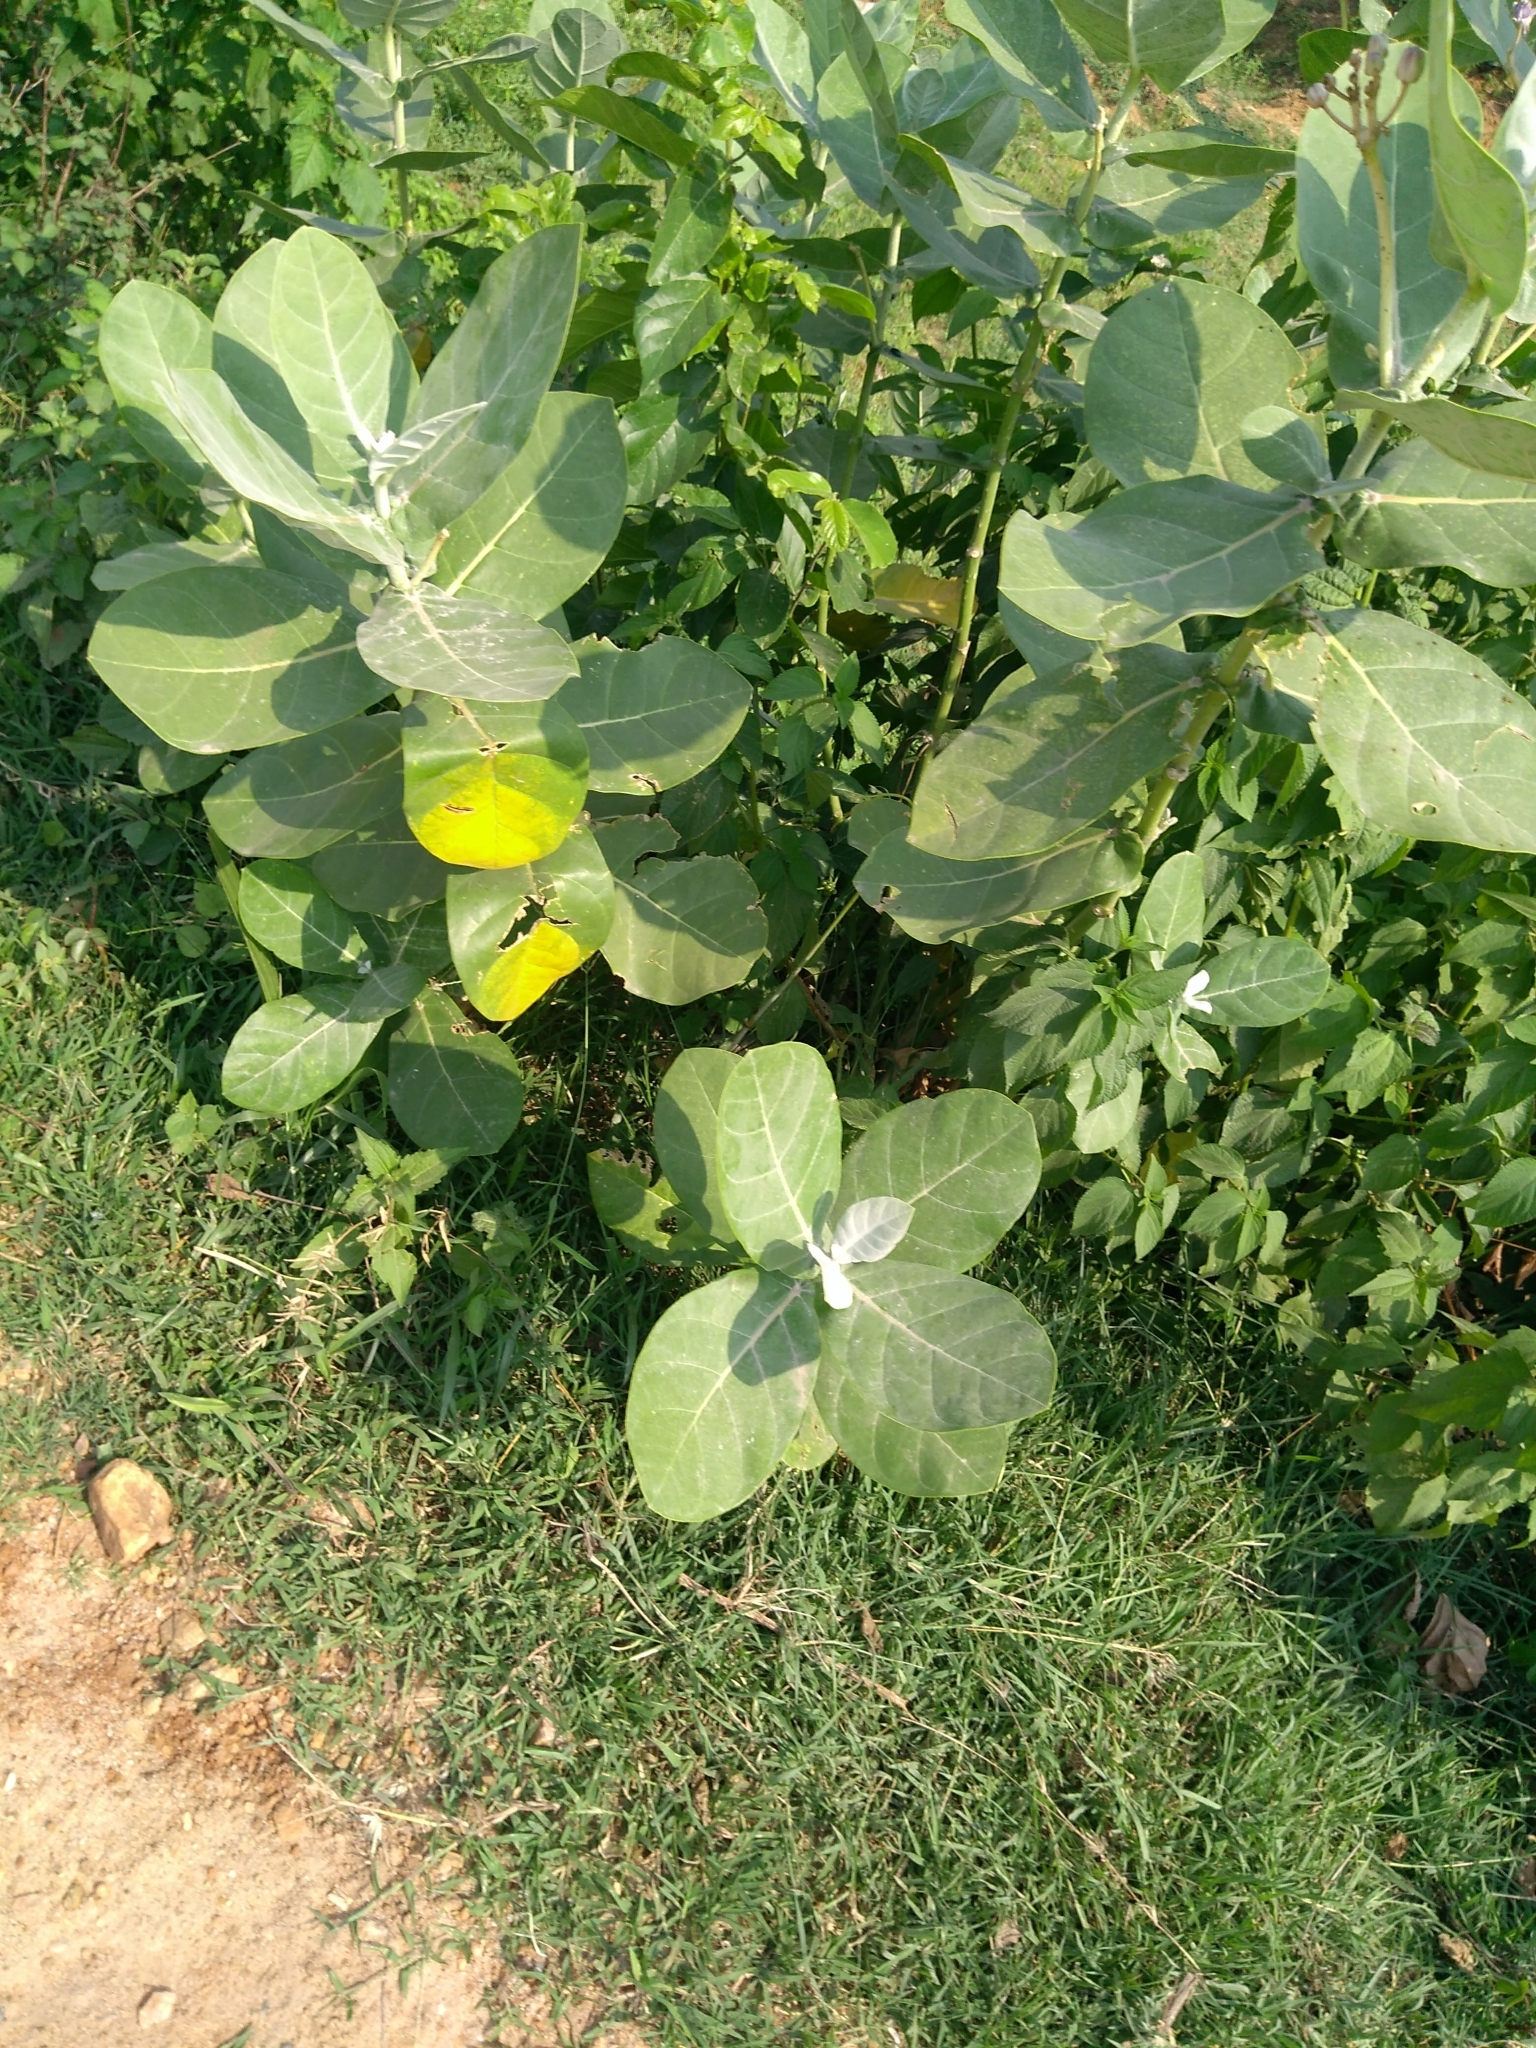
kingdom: Plantae
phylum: Tracheophyta
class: Magnoliopsida
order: Gentianales
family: Apocynaceae
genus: Calotropis
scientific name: Calotropis gigantea
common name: Crown flower
